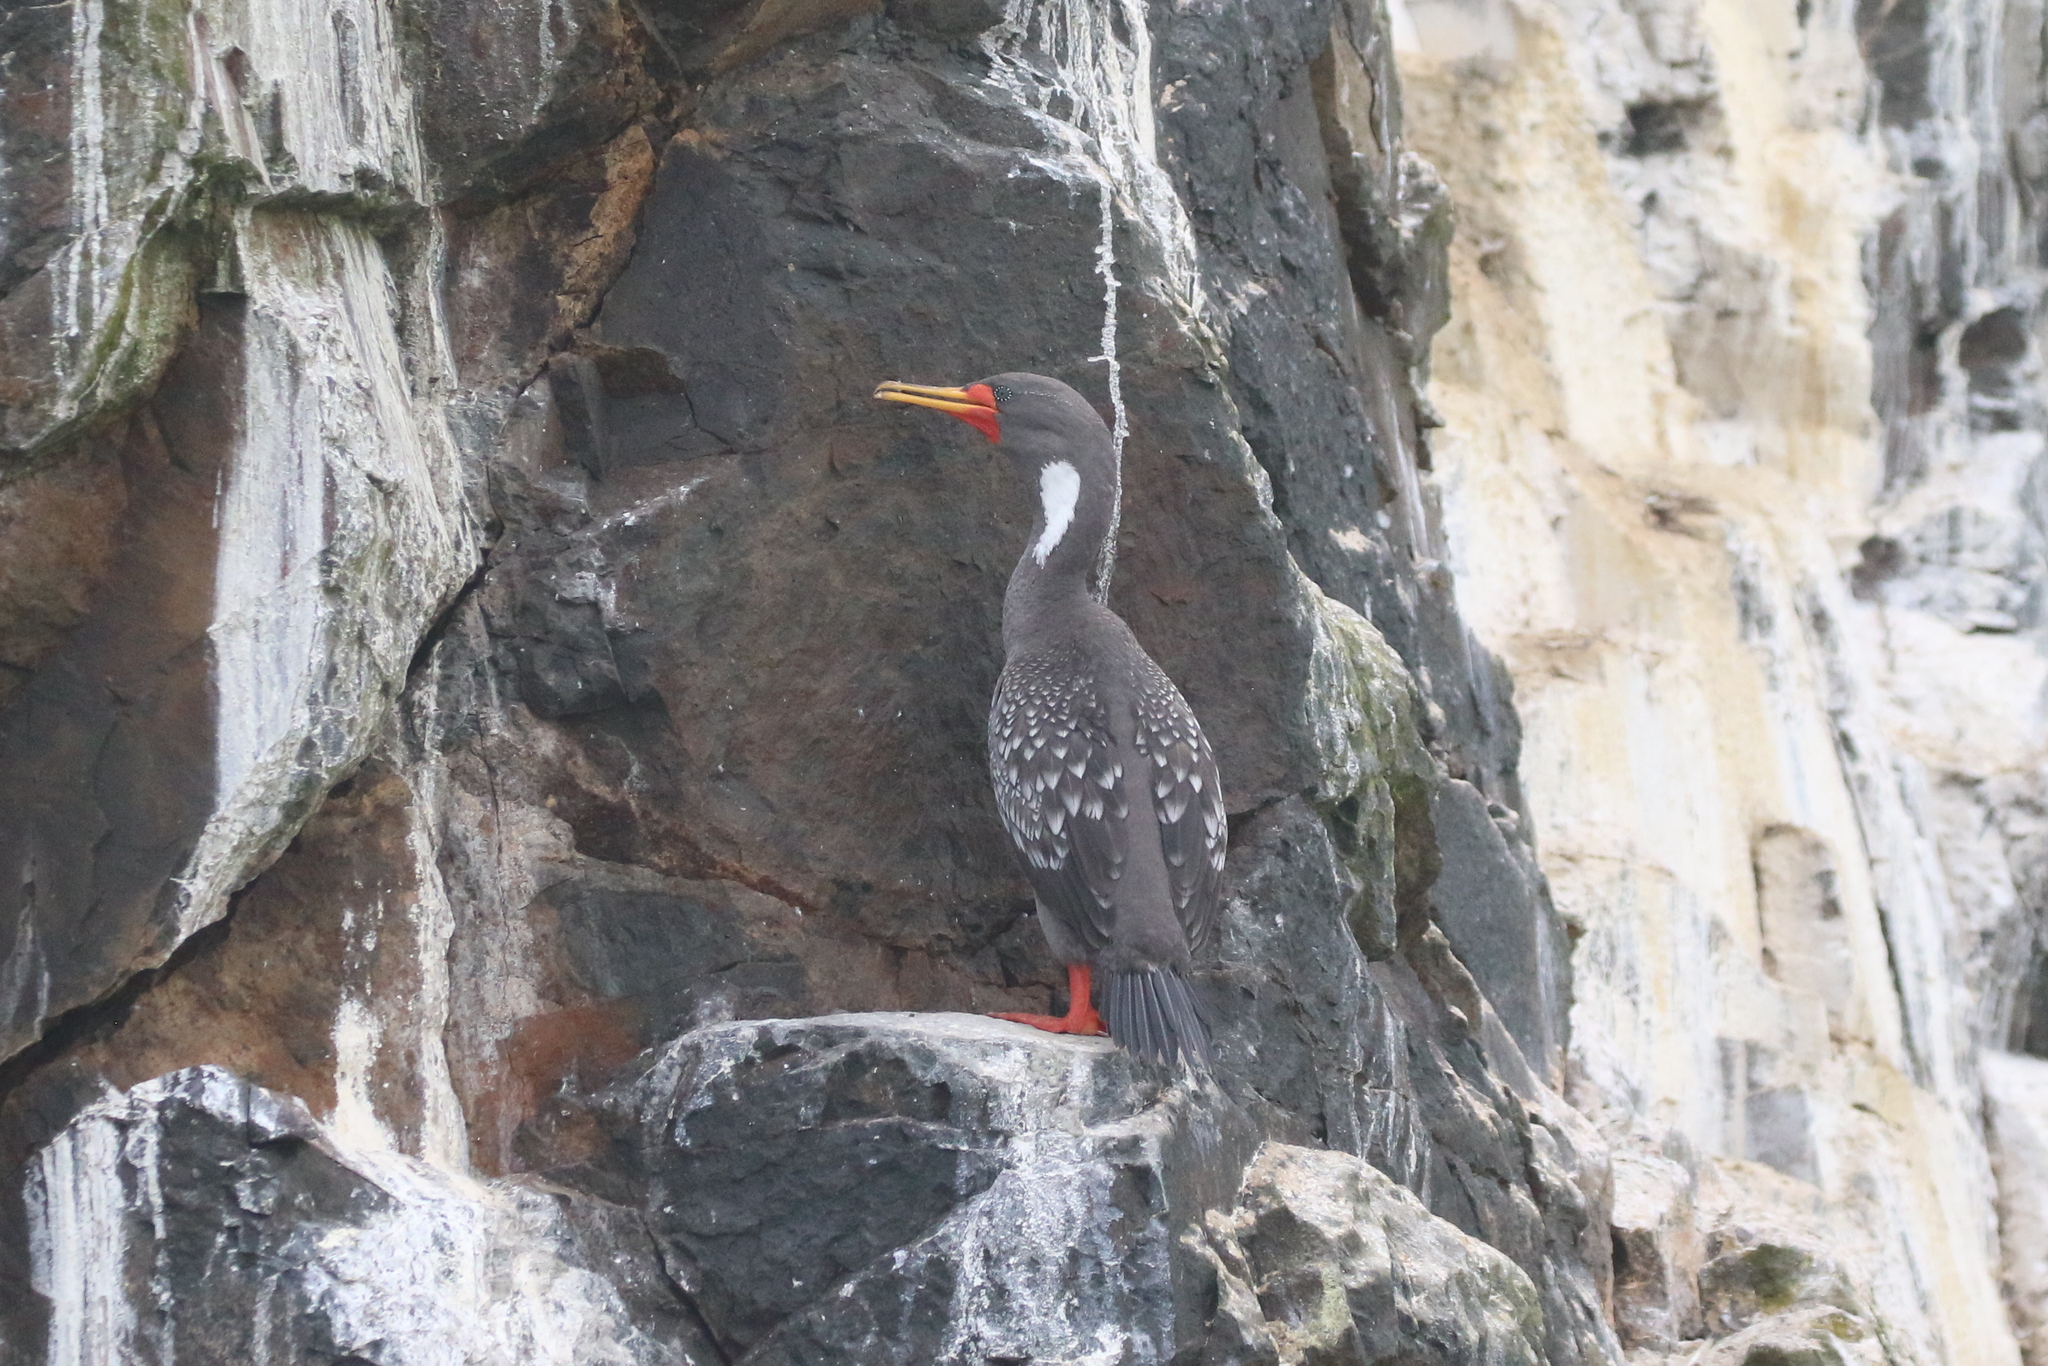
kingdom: Animalia
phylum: Chordata
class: Aves
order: Suliformes
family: Phalacrocoracidae
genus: Phalacrocorax
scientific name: Phalacrocorax gaimardi
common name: Red-legged cormorant
